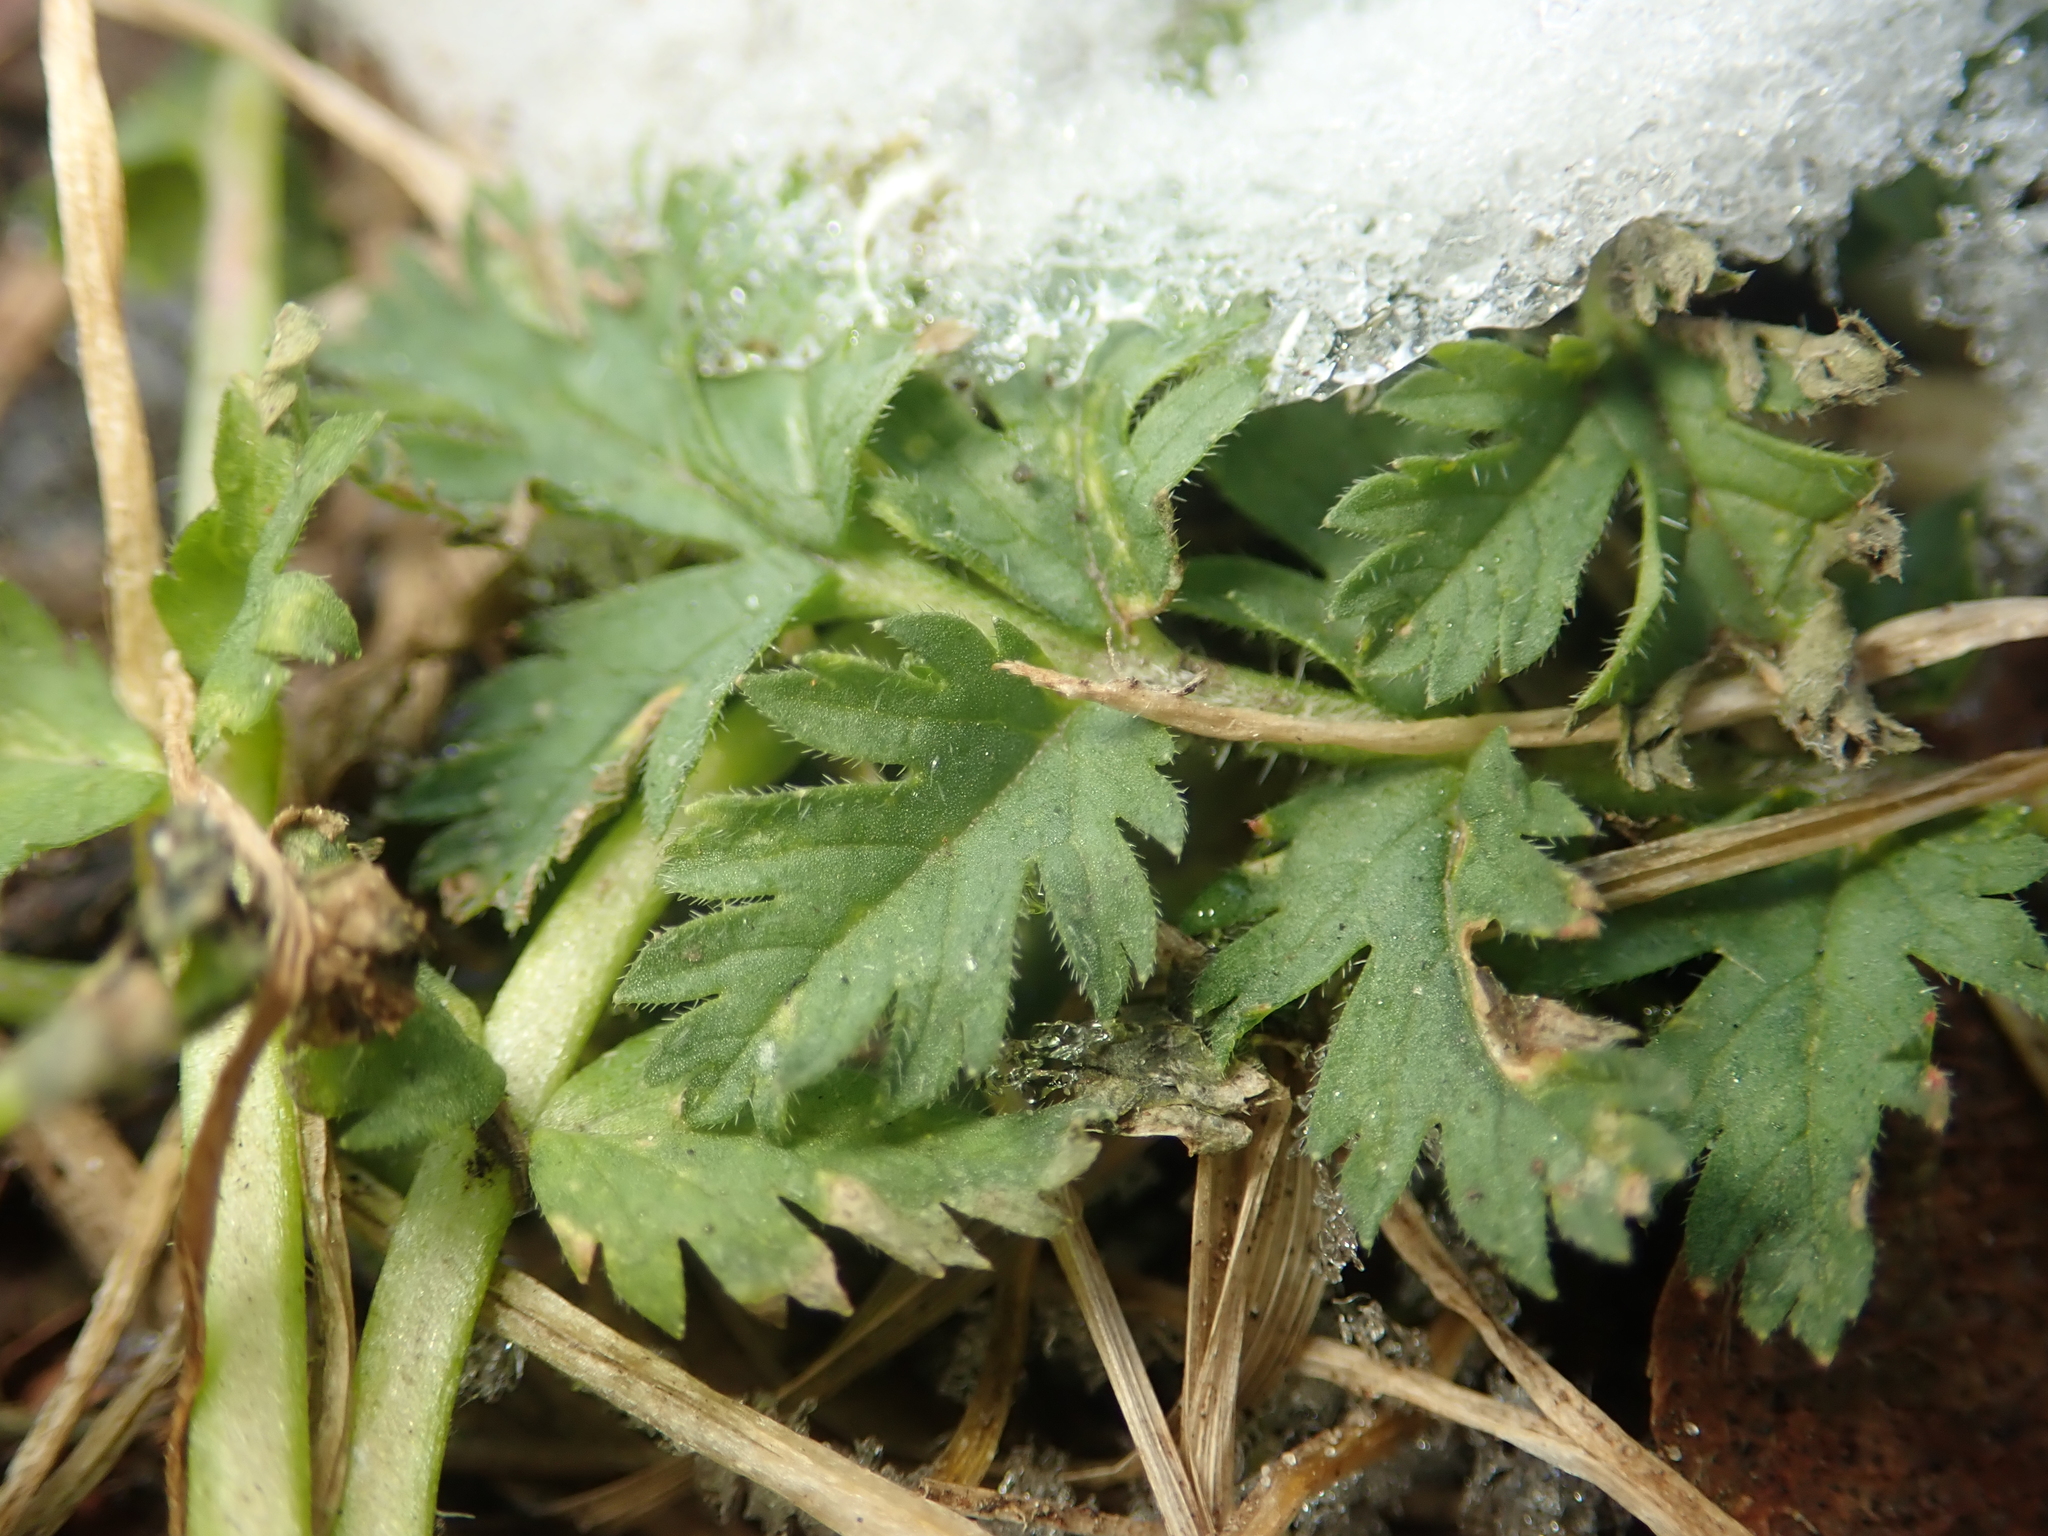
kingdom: Plantae
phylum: Tracheophyta
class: Magnoliopsida
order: Geraniales
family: Geraniaceae
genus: Erodium
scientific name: Erodium cicutarium
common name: Common stork's-bill
